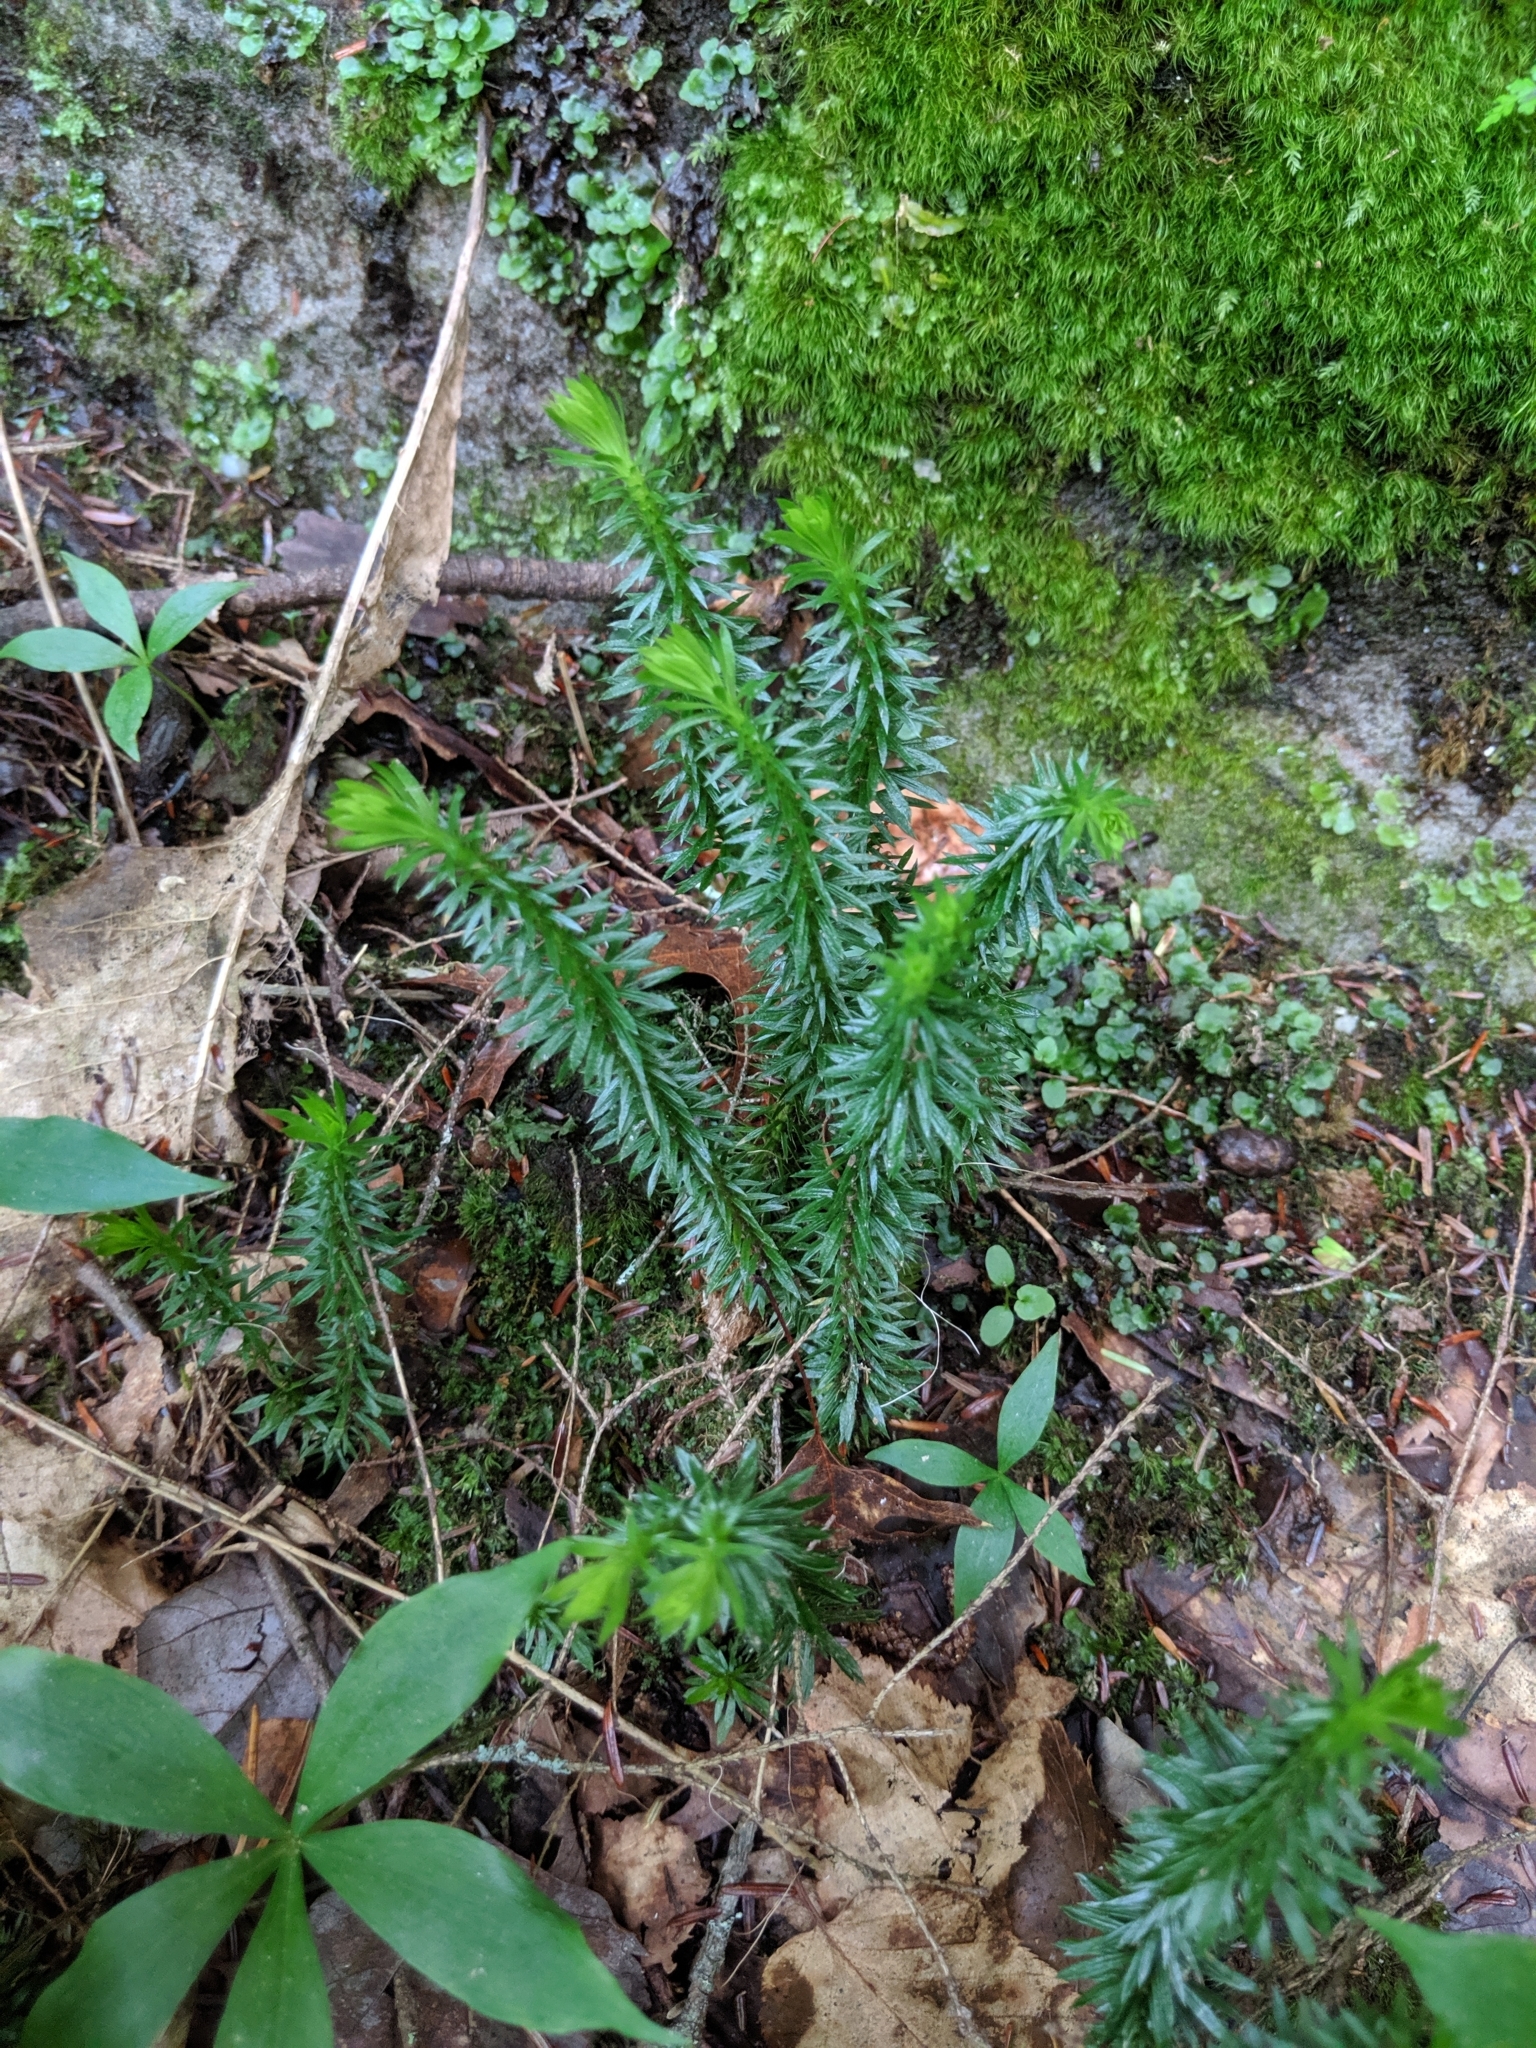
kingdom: Plantae
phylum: Tracheophyta
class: Lycopodiopsida
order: Lycopodiales
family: Lycopodiaceae
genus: Huperzia
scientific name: Huperzia lucidula
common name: Shining clubmoss
